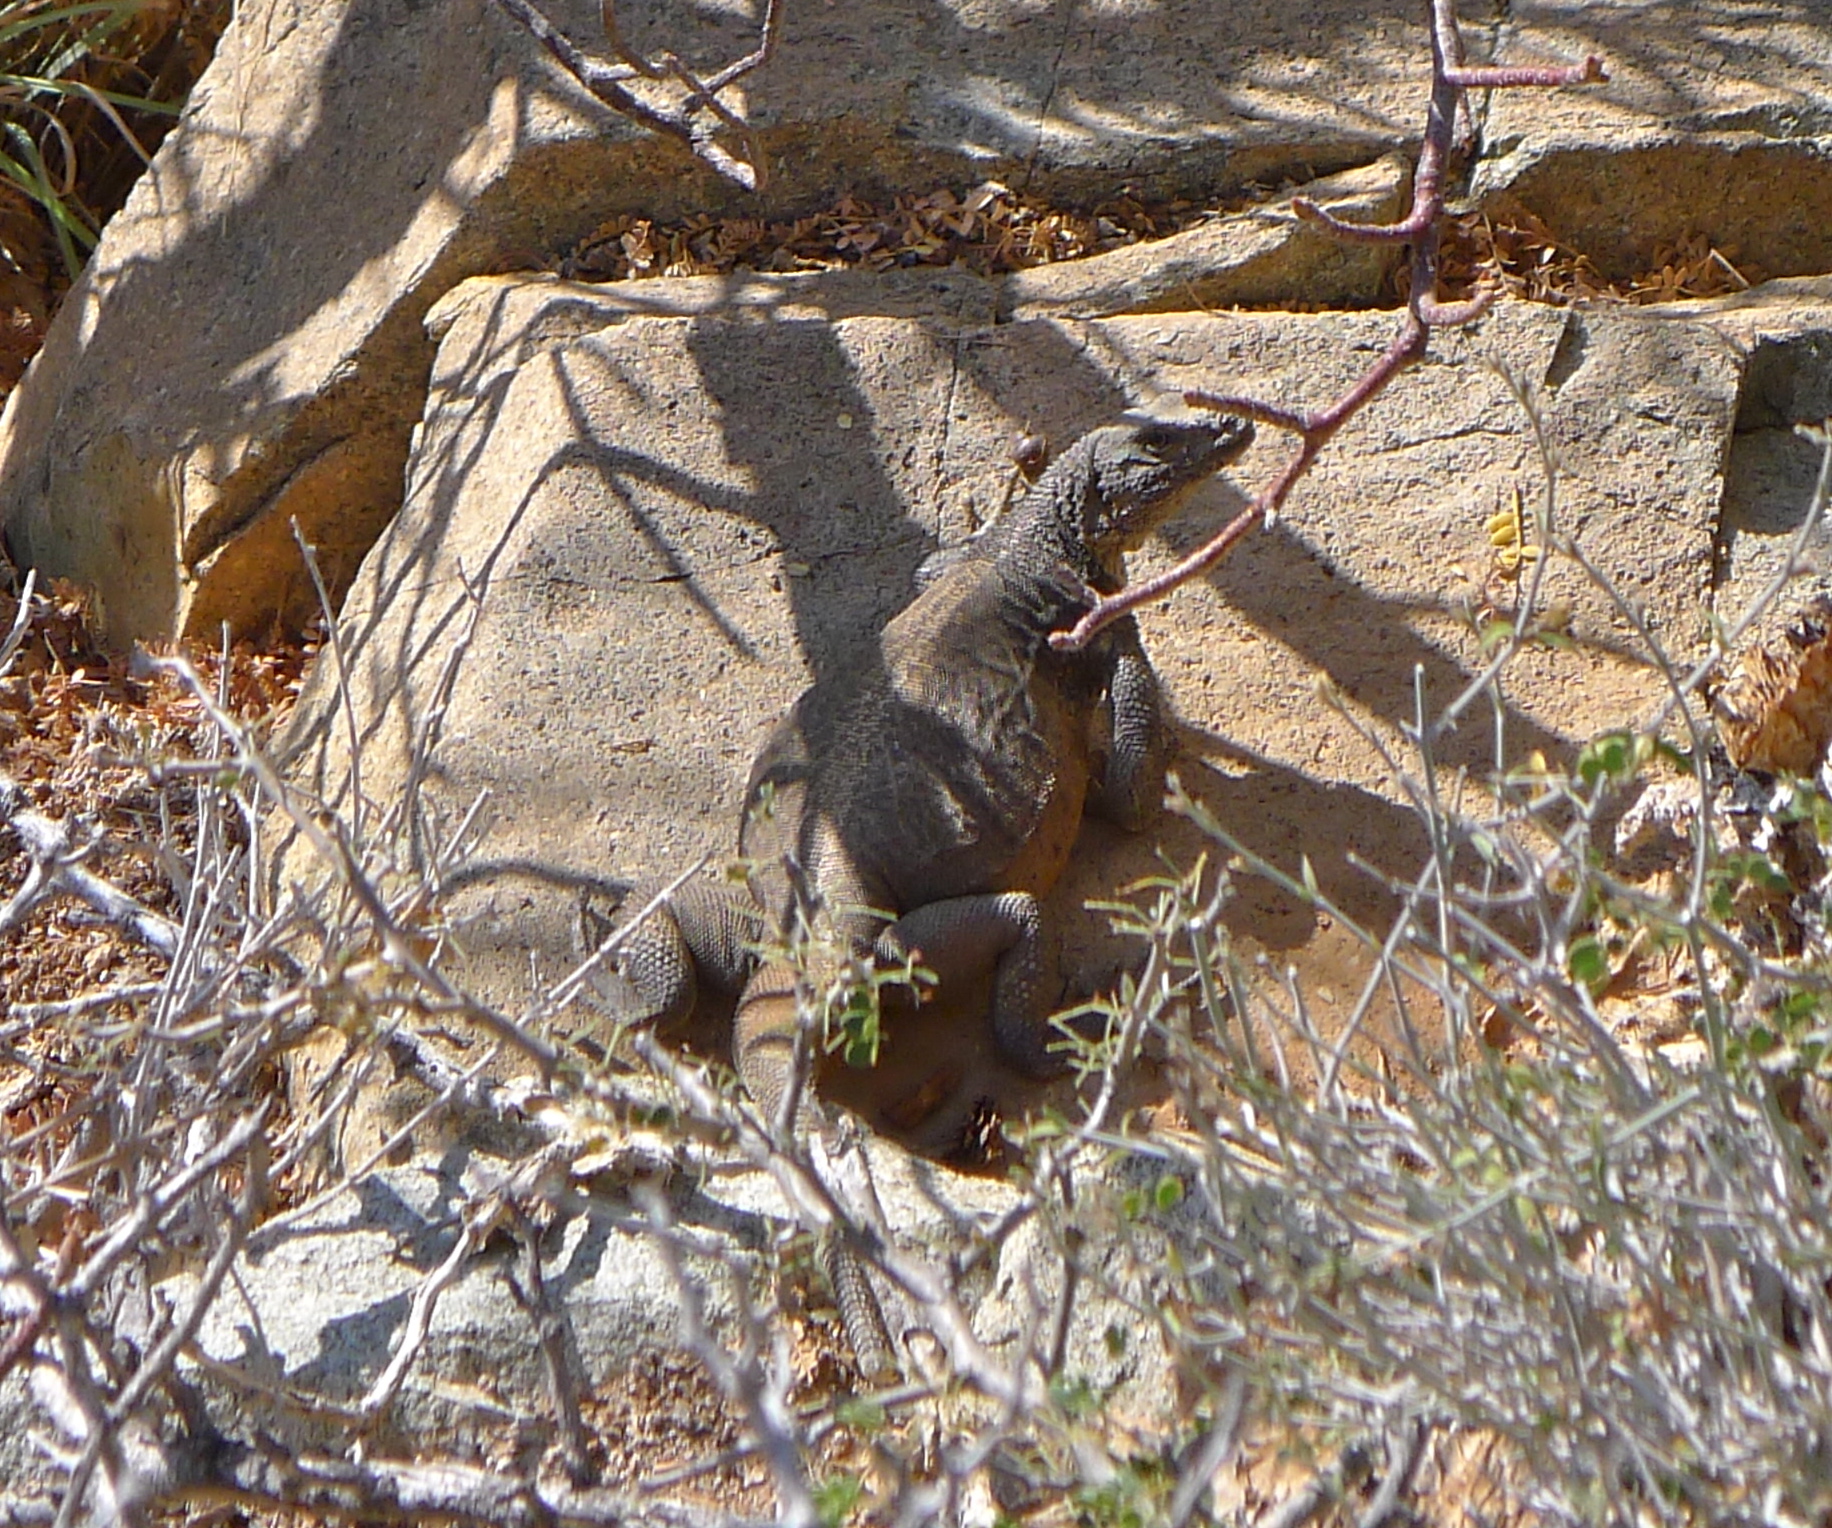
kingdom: Animalia
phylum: Chordata
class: Squamata
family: Iguanidae
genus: Sauromalus
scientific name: Sauromalus klauberi
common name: Catalina chuckwalla
